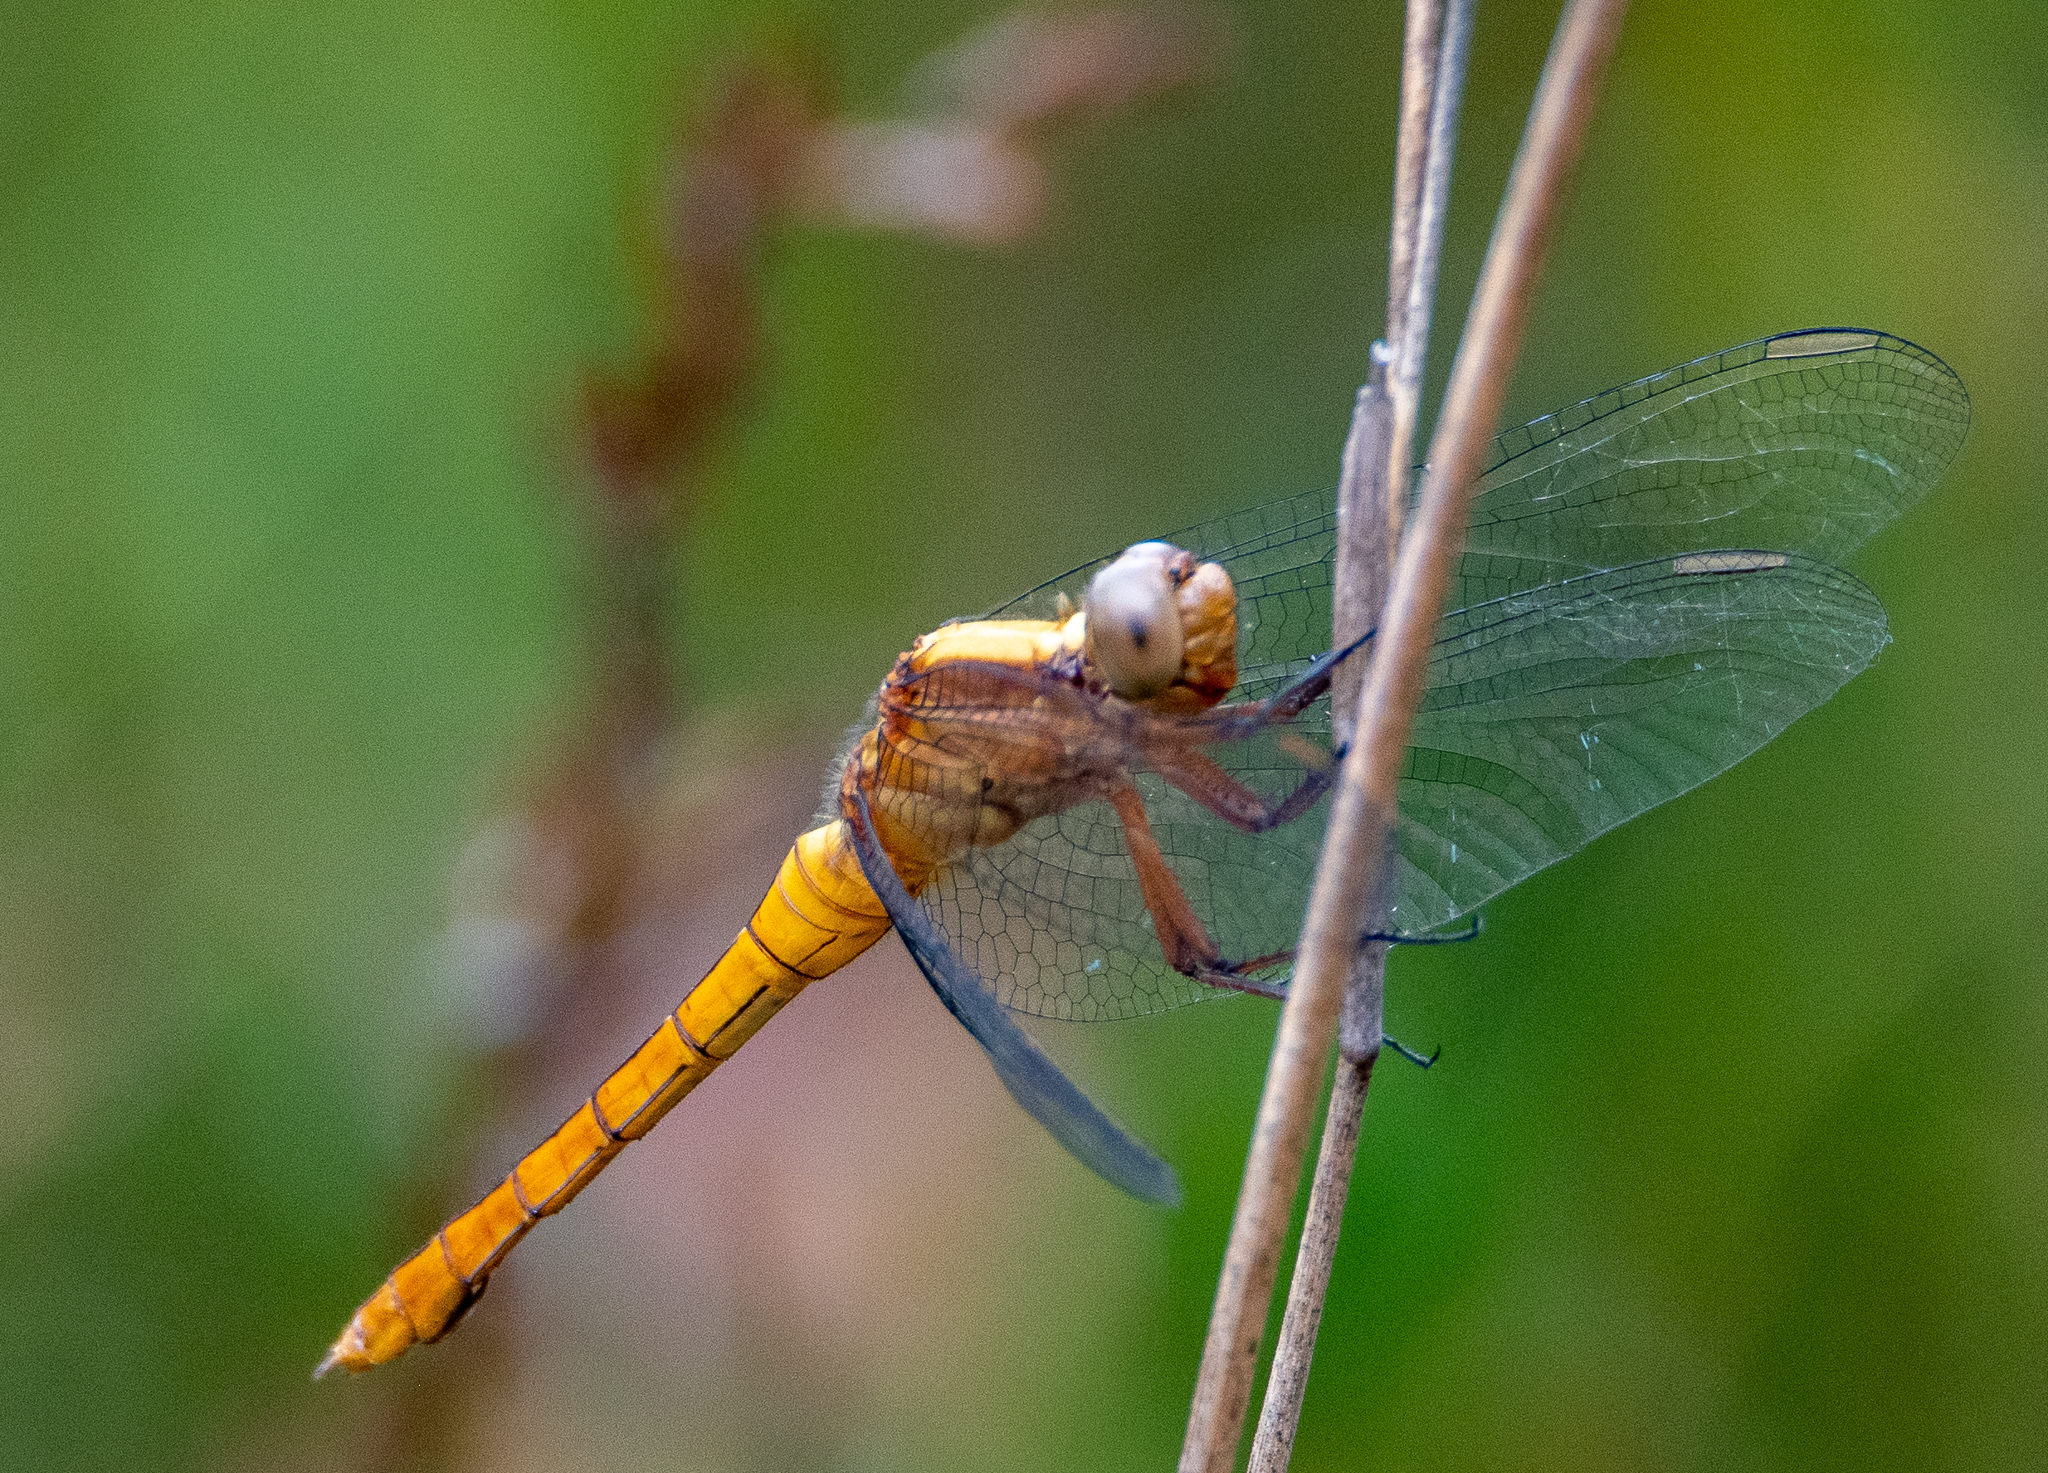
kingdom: Animalia
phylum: Arthropoda
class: Insecta
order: Odonata
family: Libellulidae
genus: Orthetrum
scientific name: Orthetrum villosovittatum
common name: Firery skimmer
